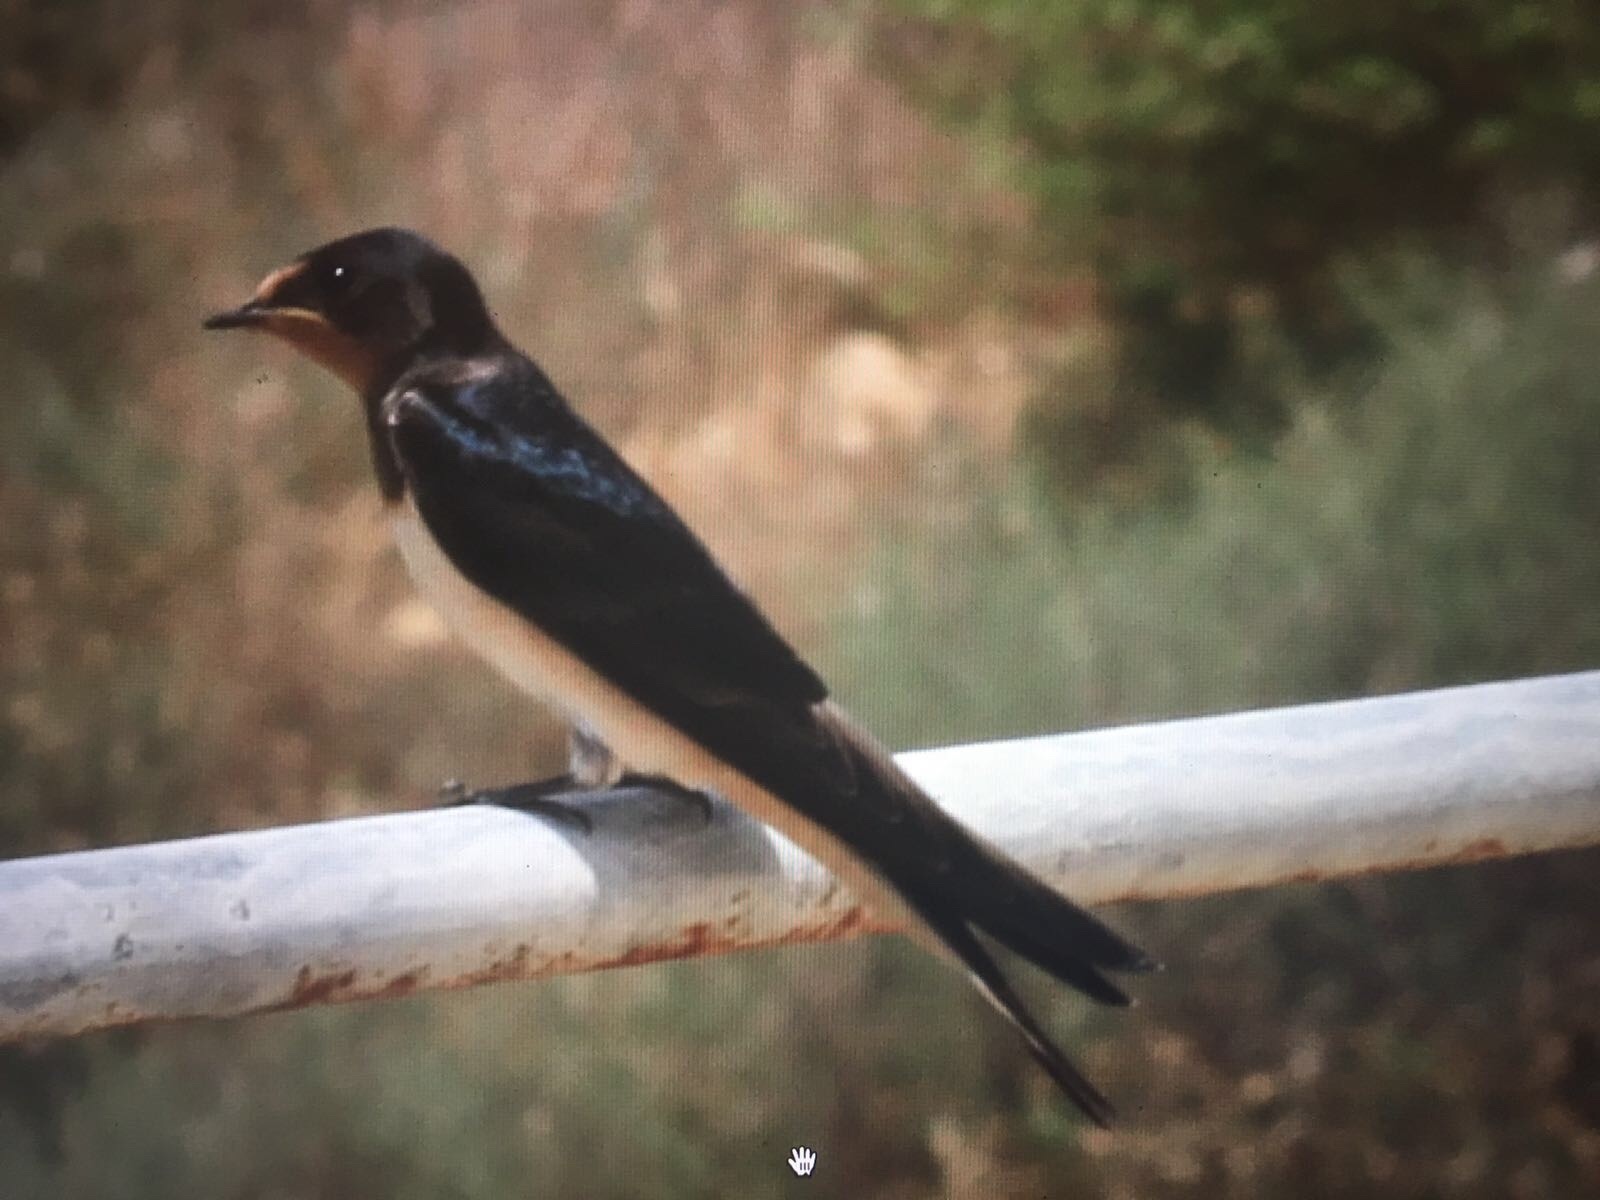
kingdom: Animalia
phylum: Chordata
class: Aves
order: Passeriformes
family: Hirundinidae
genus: Hirundo
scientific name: Hirundo rustica
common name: Barn swallow
